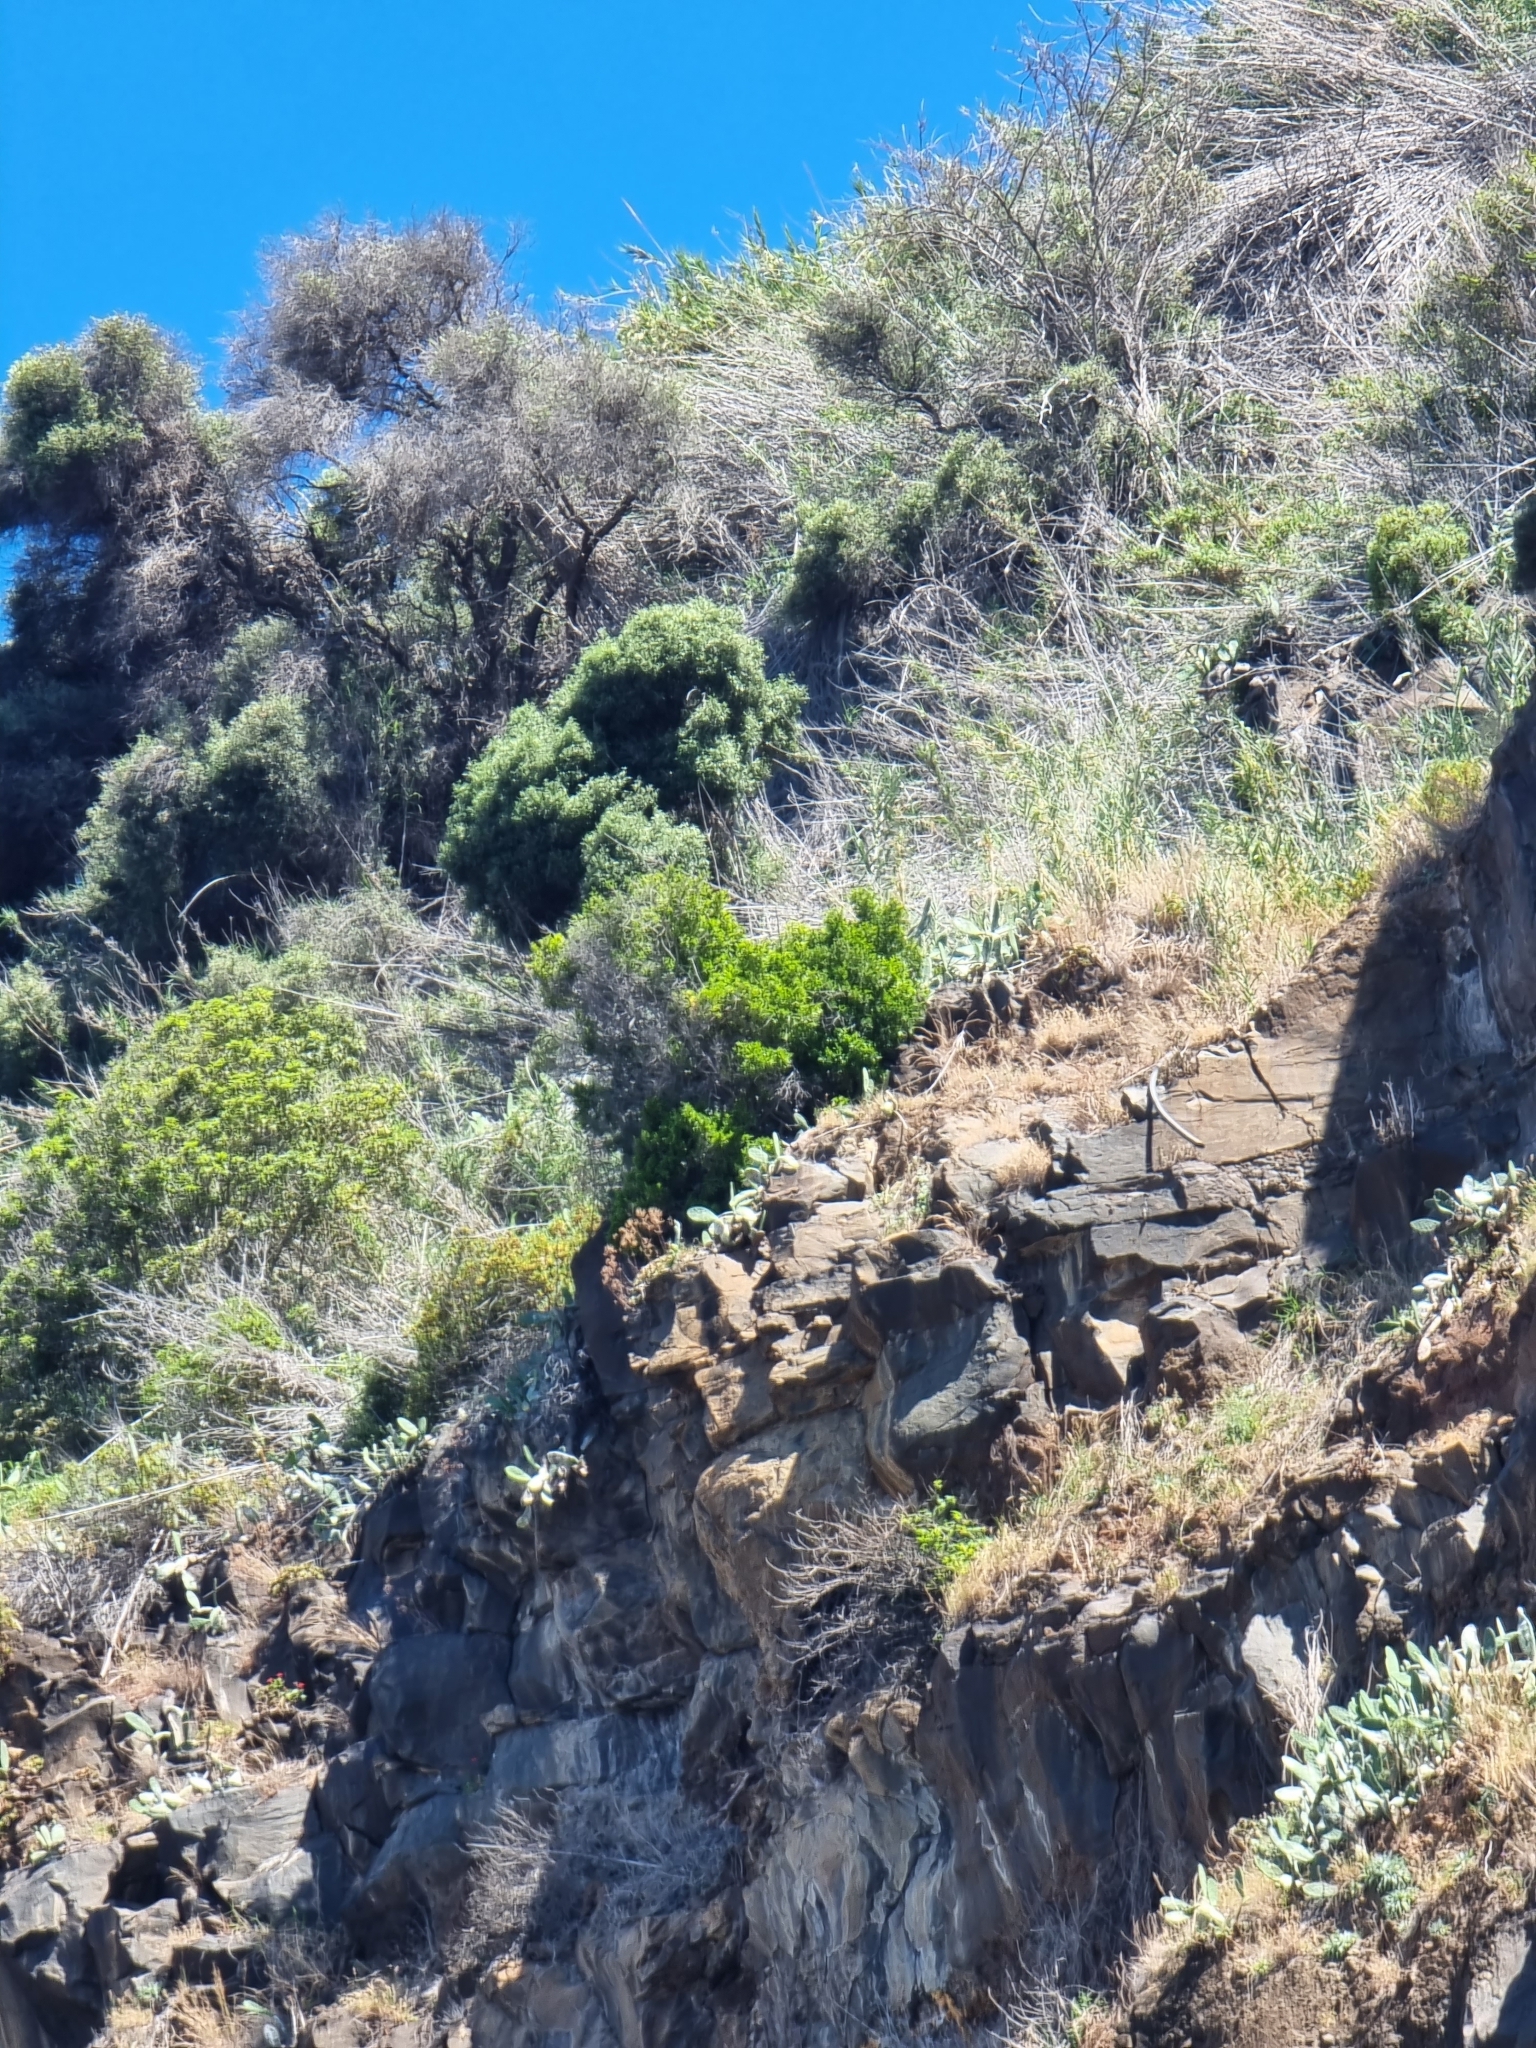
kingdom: Plantae
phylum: Tracheophyta
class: Magnoliopsida
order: Celastrales
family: Celastraceae
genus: Gymnosporia
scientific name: Gymnosporia dryandri
